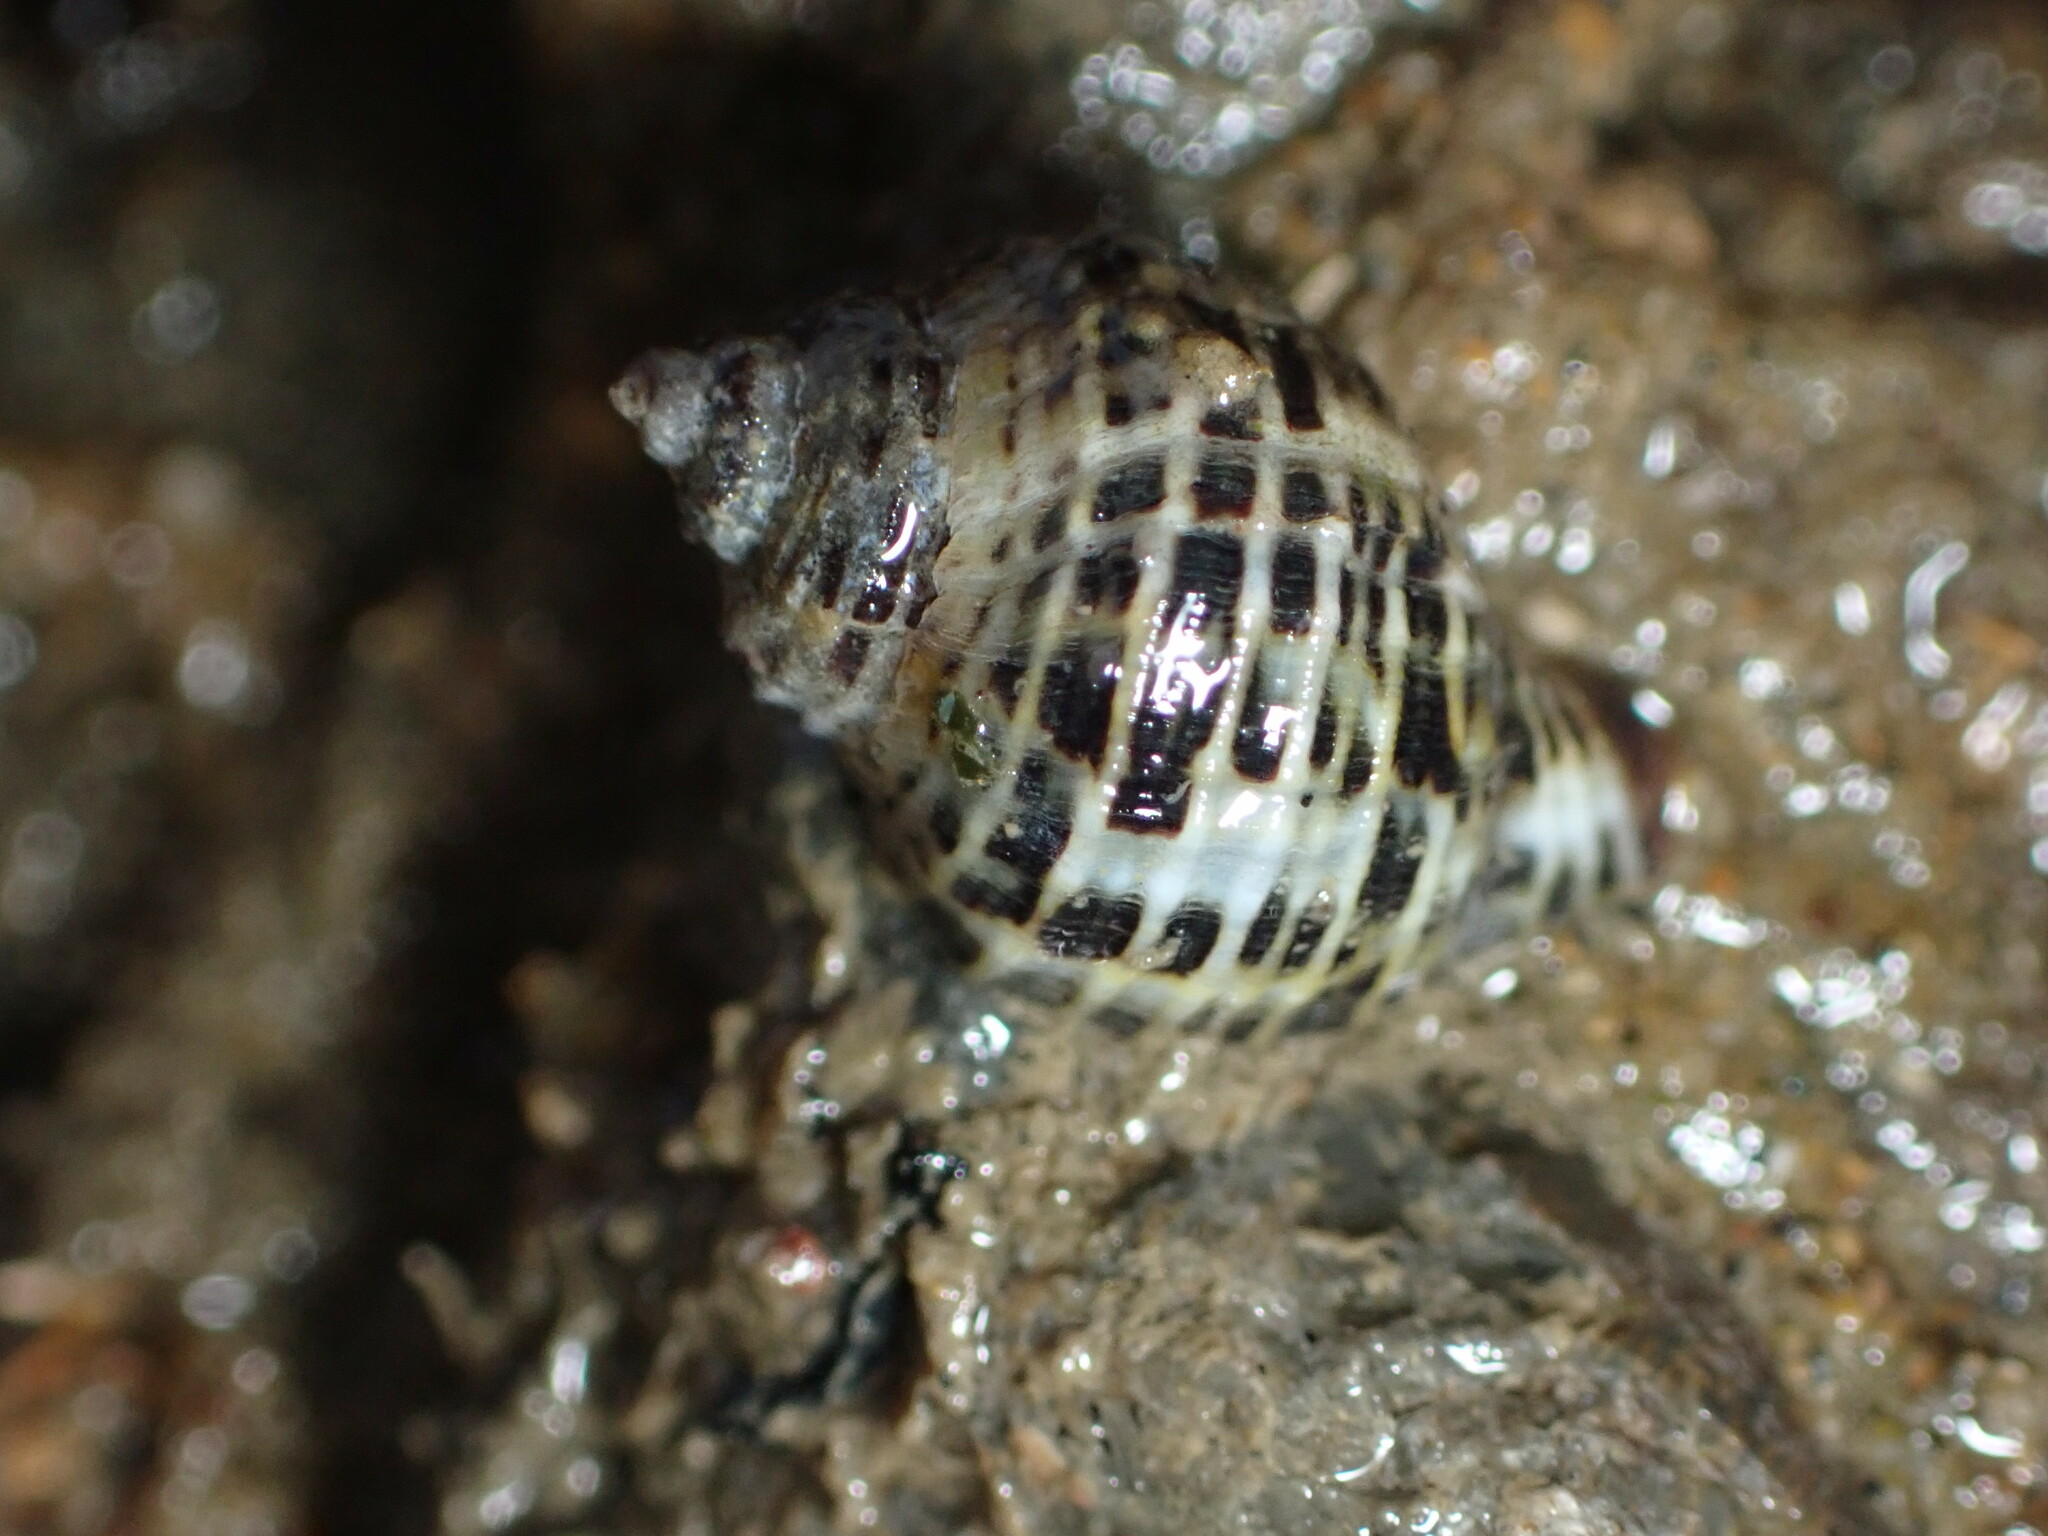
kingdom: Animalia
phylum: Mollusca
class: Gastropoda
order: Neogastropoda
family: Muricidae
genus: Acanthinucella
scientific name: Acanthinucella spirata
